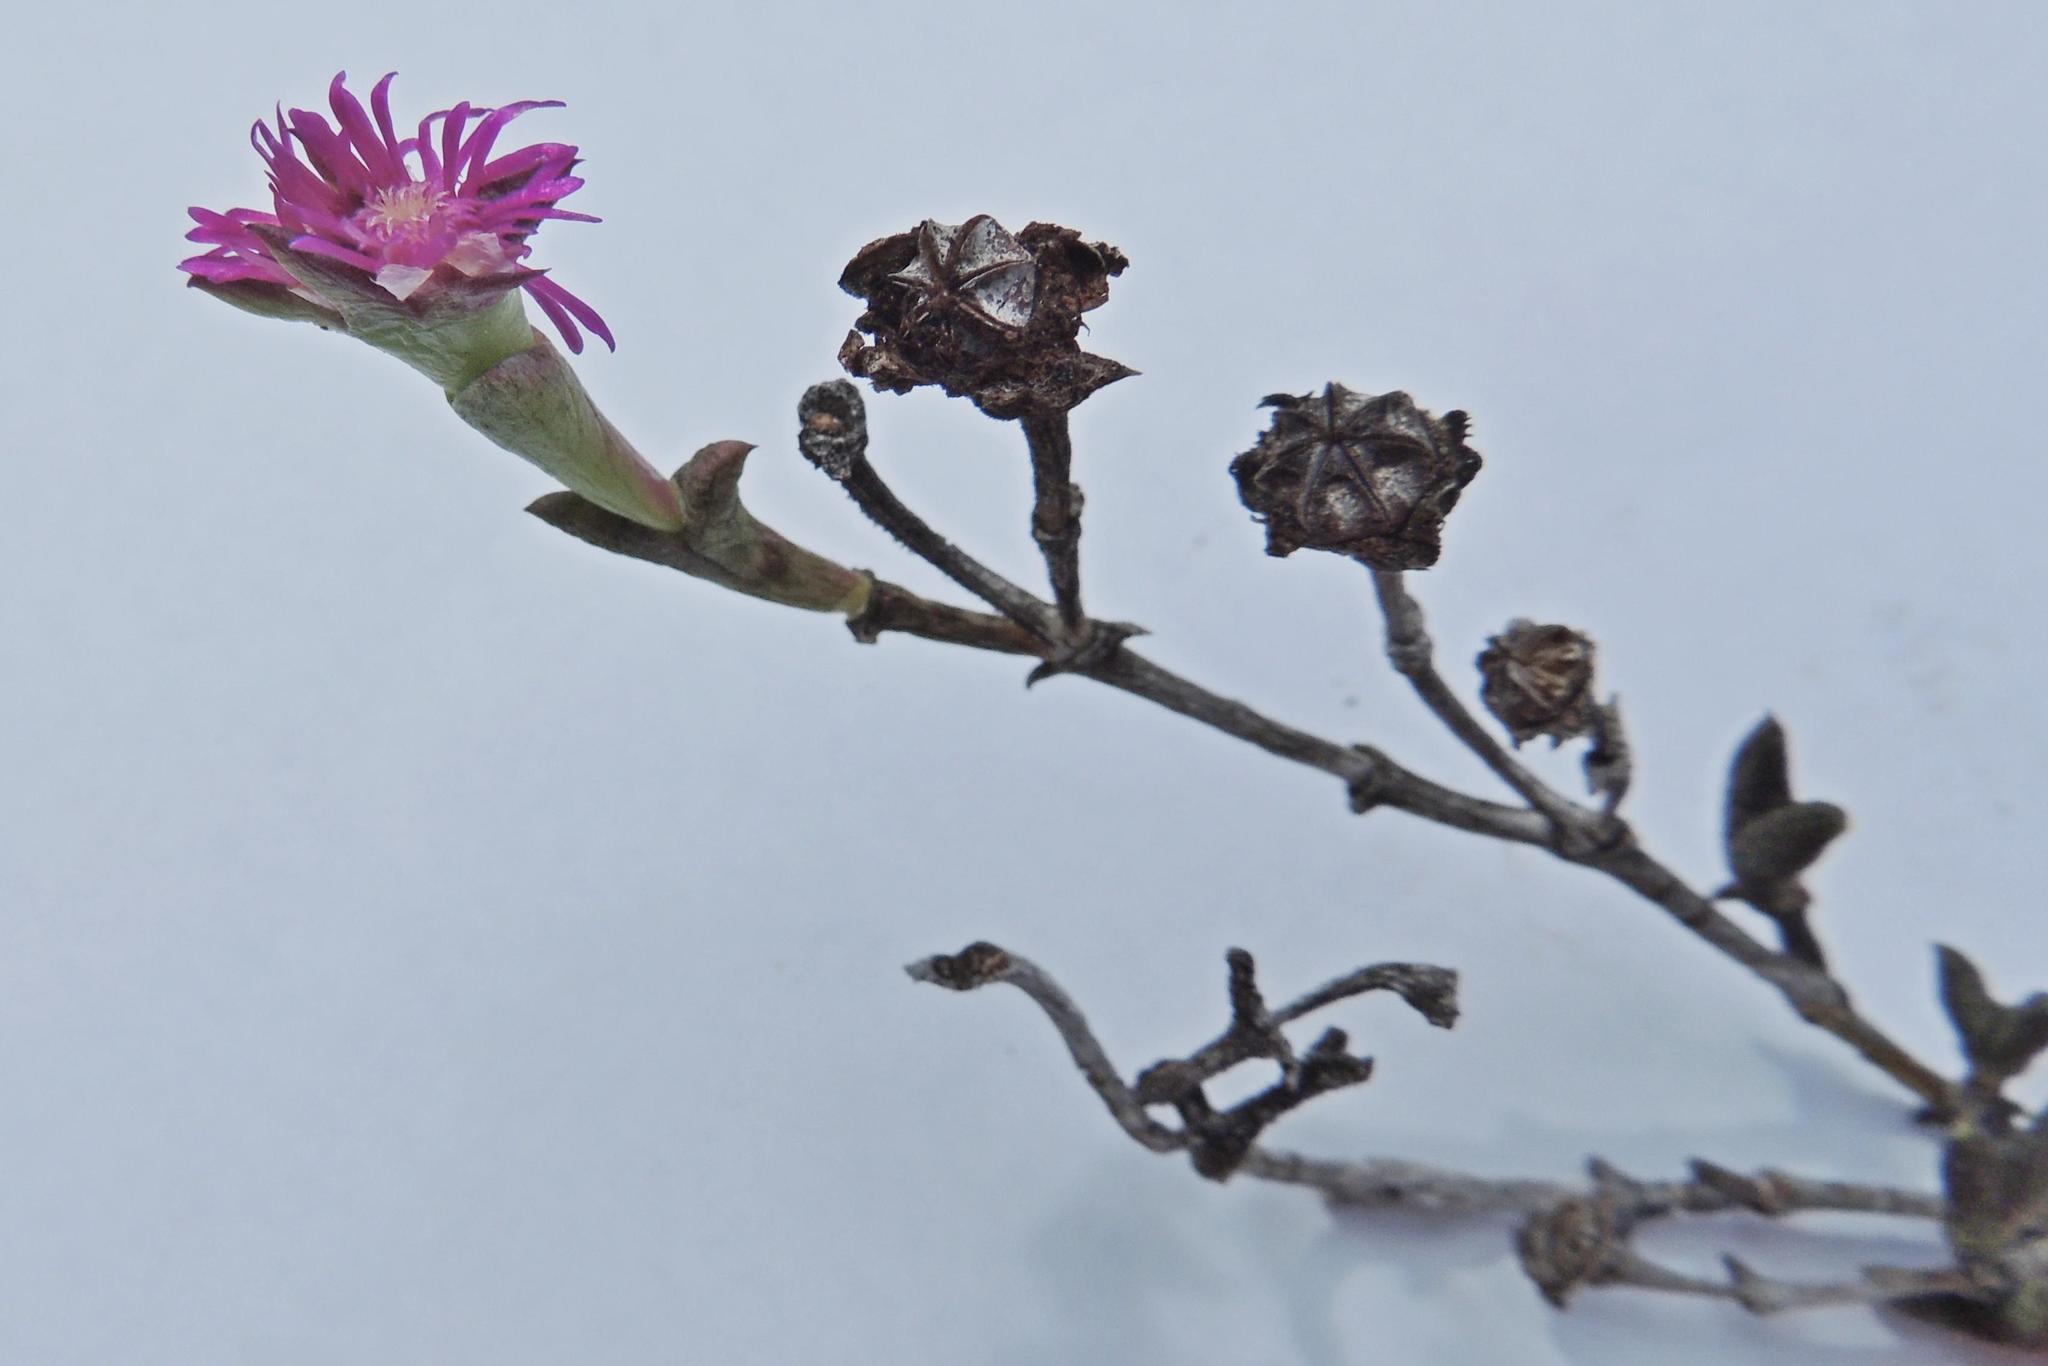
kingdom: Plantae
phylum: Tracheophyta
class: Magnoliopsida
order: Caryophyllales
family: Aizoaceae
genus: Smicrostigma
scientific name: Smicrostigma viride
